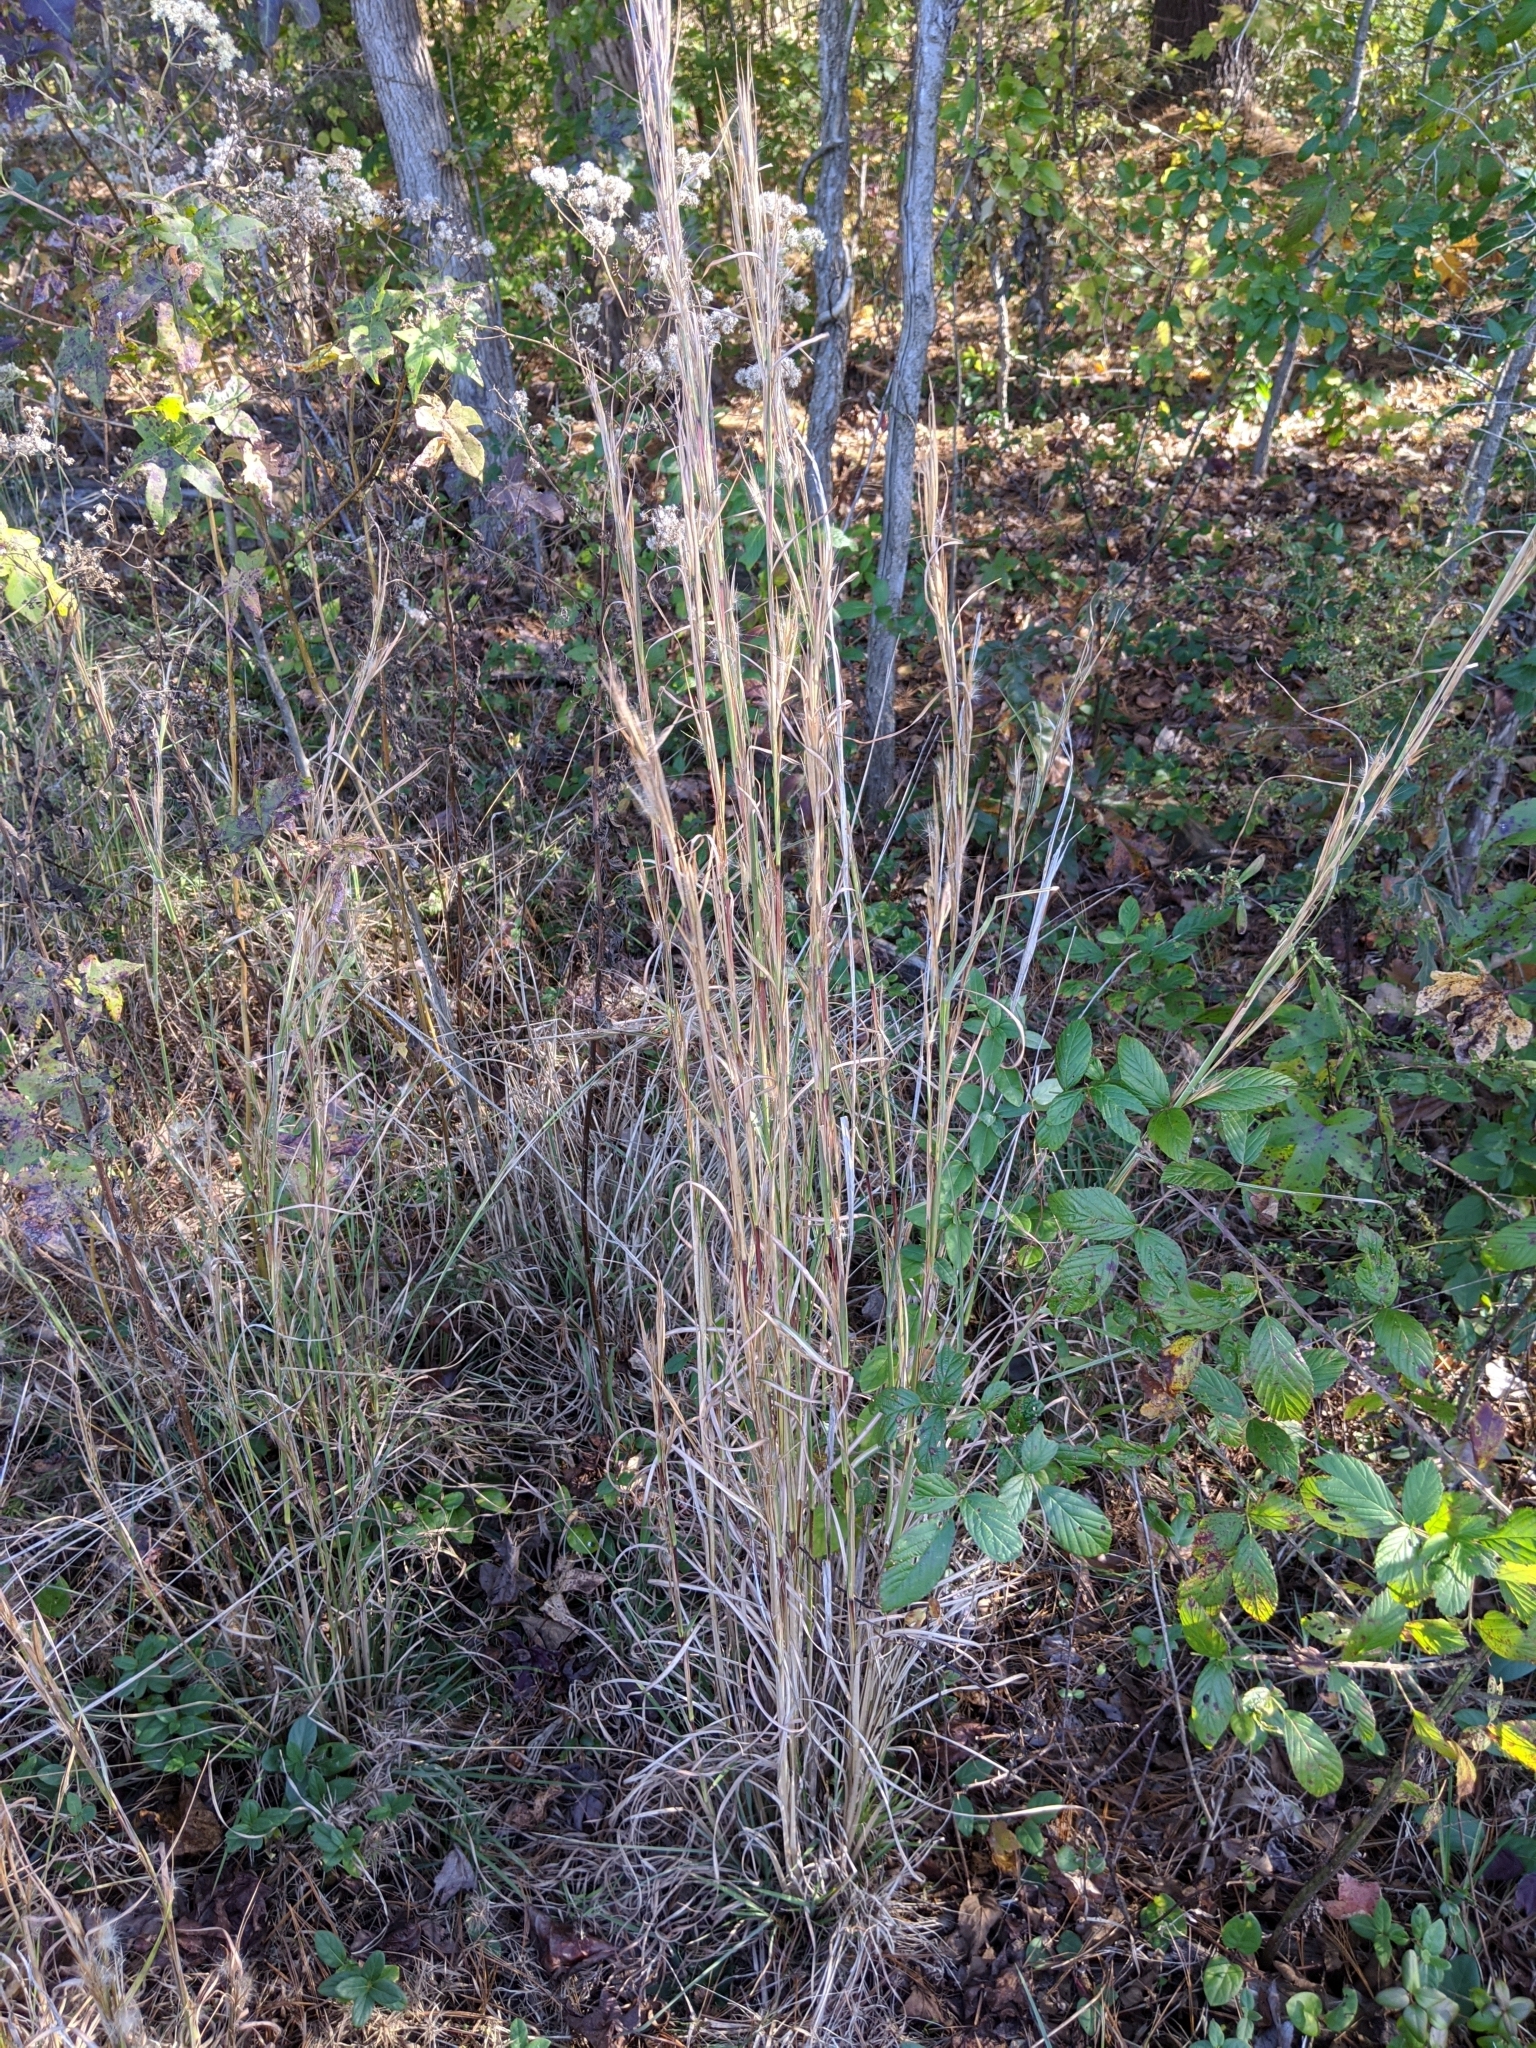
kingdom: Plantae
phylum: Tracheophyta
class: Liliopsida
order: Poales
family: Poaceae
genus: Schizachyrium
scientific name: Schizachyrium scoparium
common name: Little bluestem
